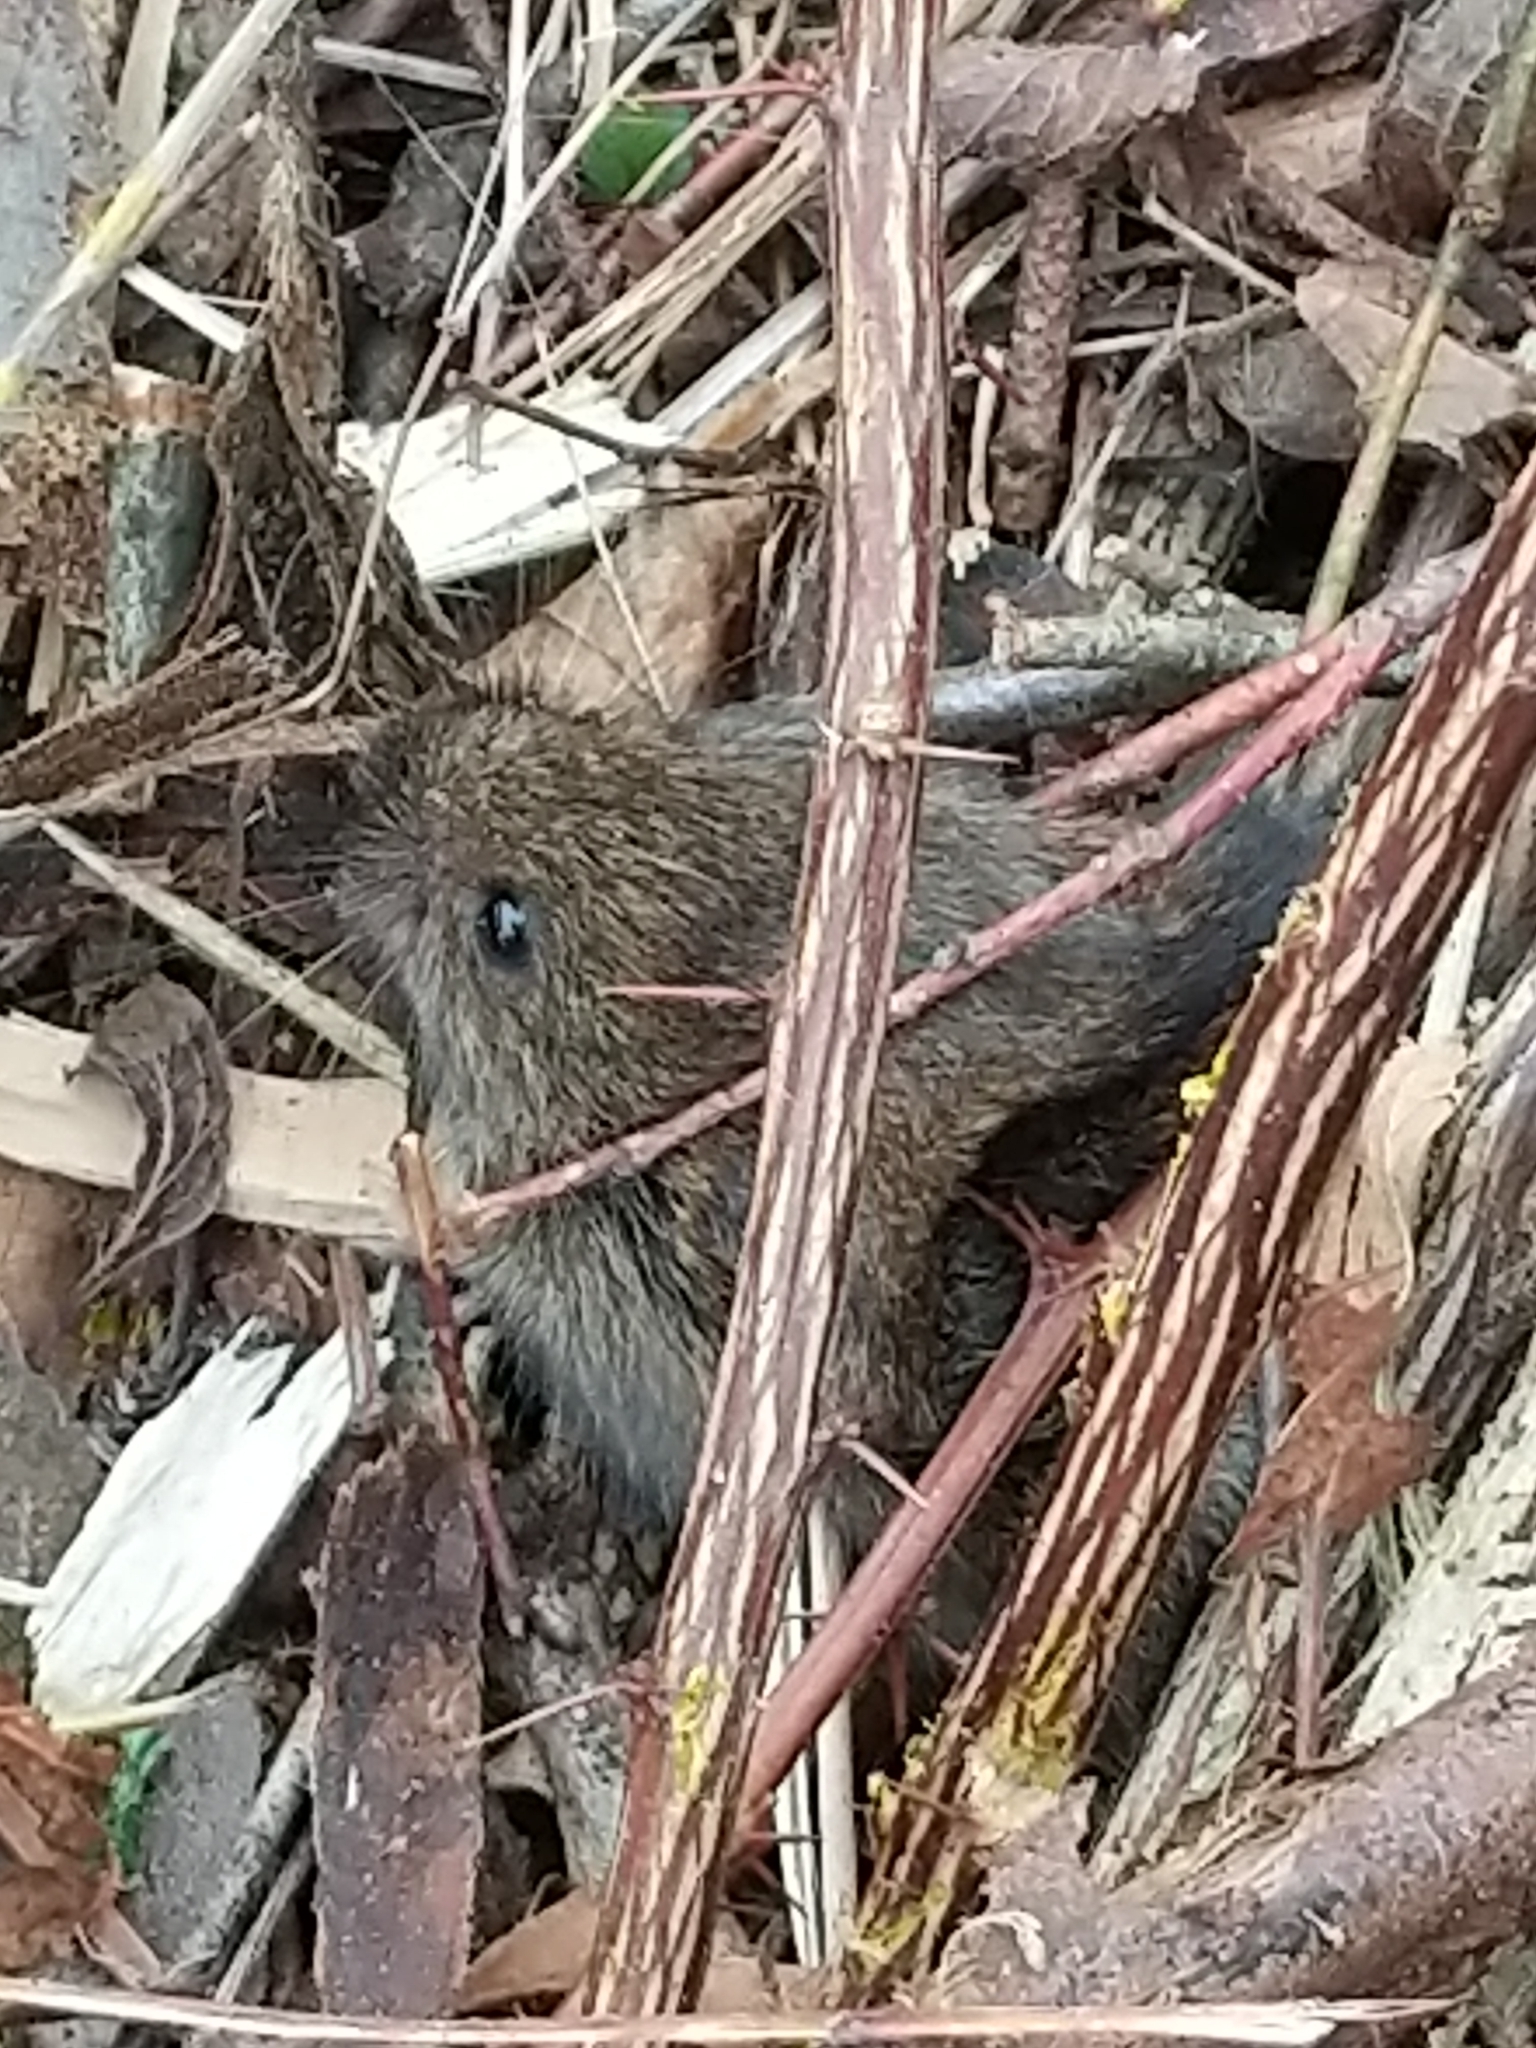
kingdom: Animalia
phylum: Chordata
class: Mammalia
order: Rodentia
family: Cricetidae
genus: Microtus
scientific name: Microtus pennsylvanicus
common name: Meadow vole
